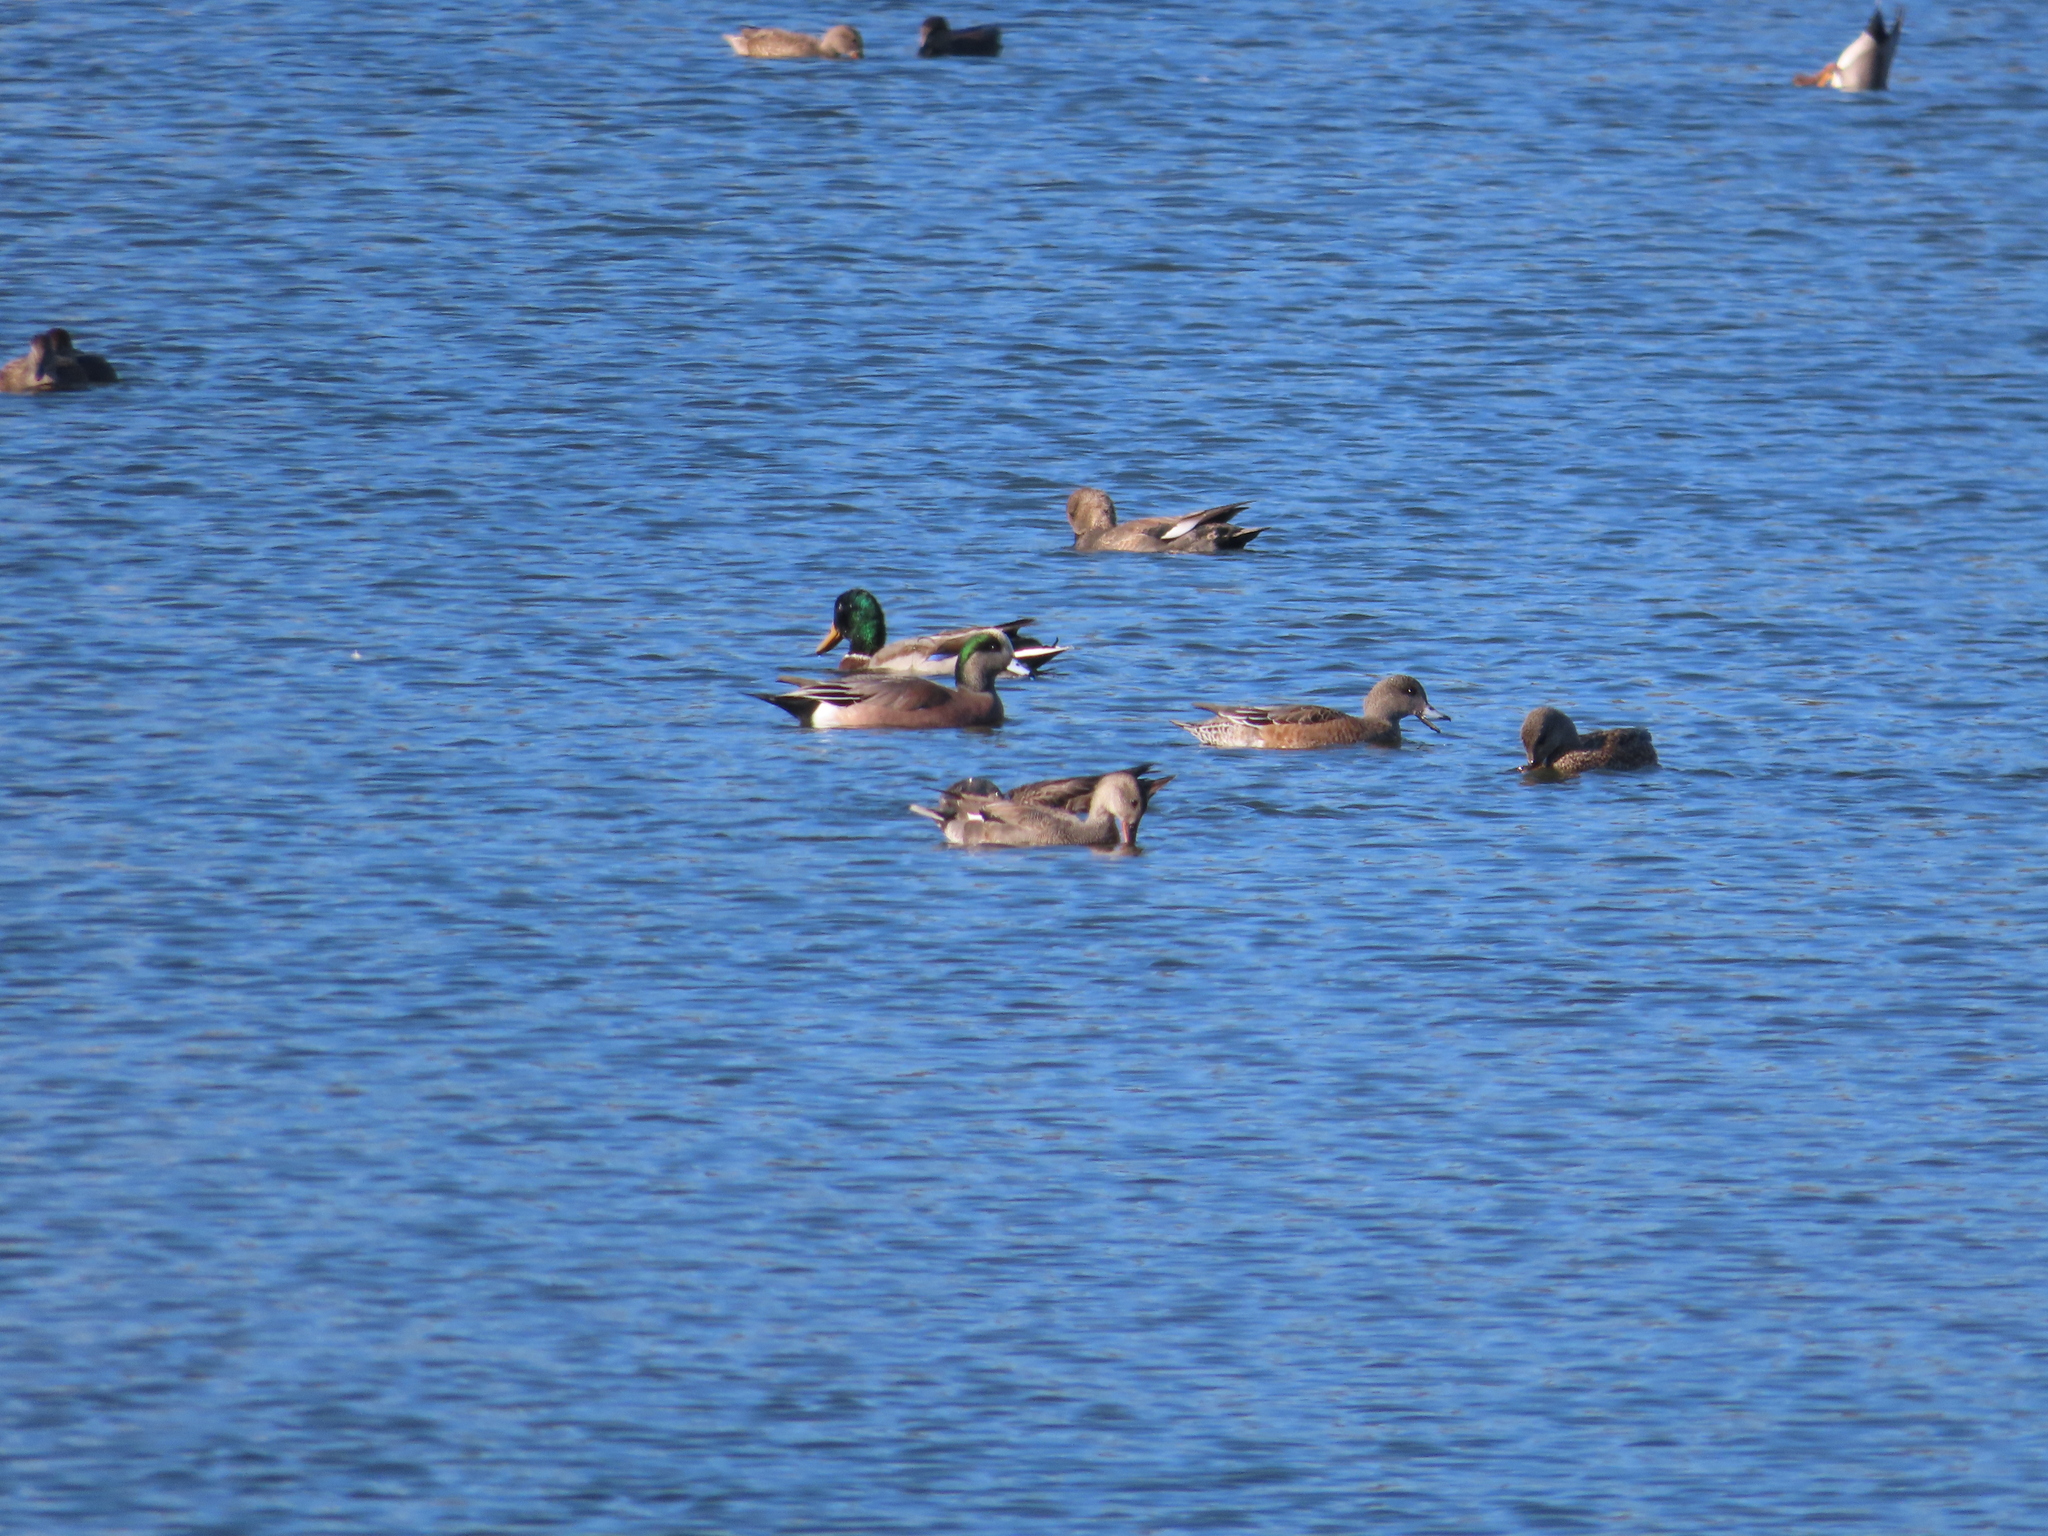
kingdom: Animalia
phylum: Chordata
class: Aves
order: Anseriformes
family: Anatidae
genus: Mareca
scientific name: Mareca americana
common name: American wigeon
